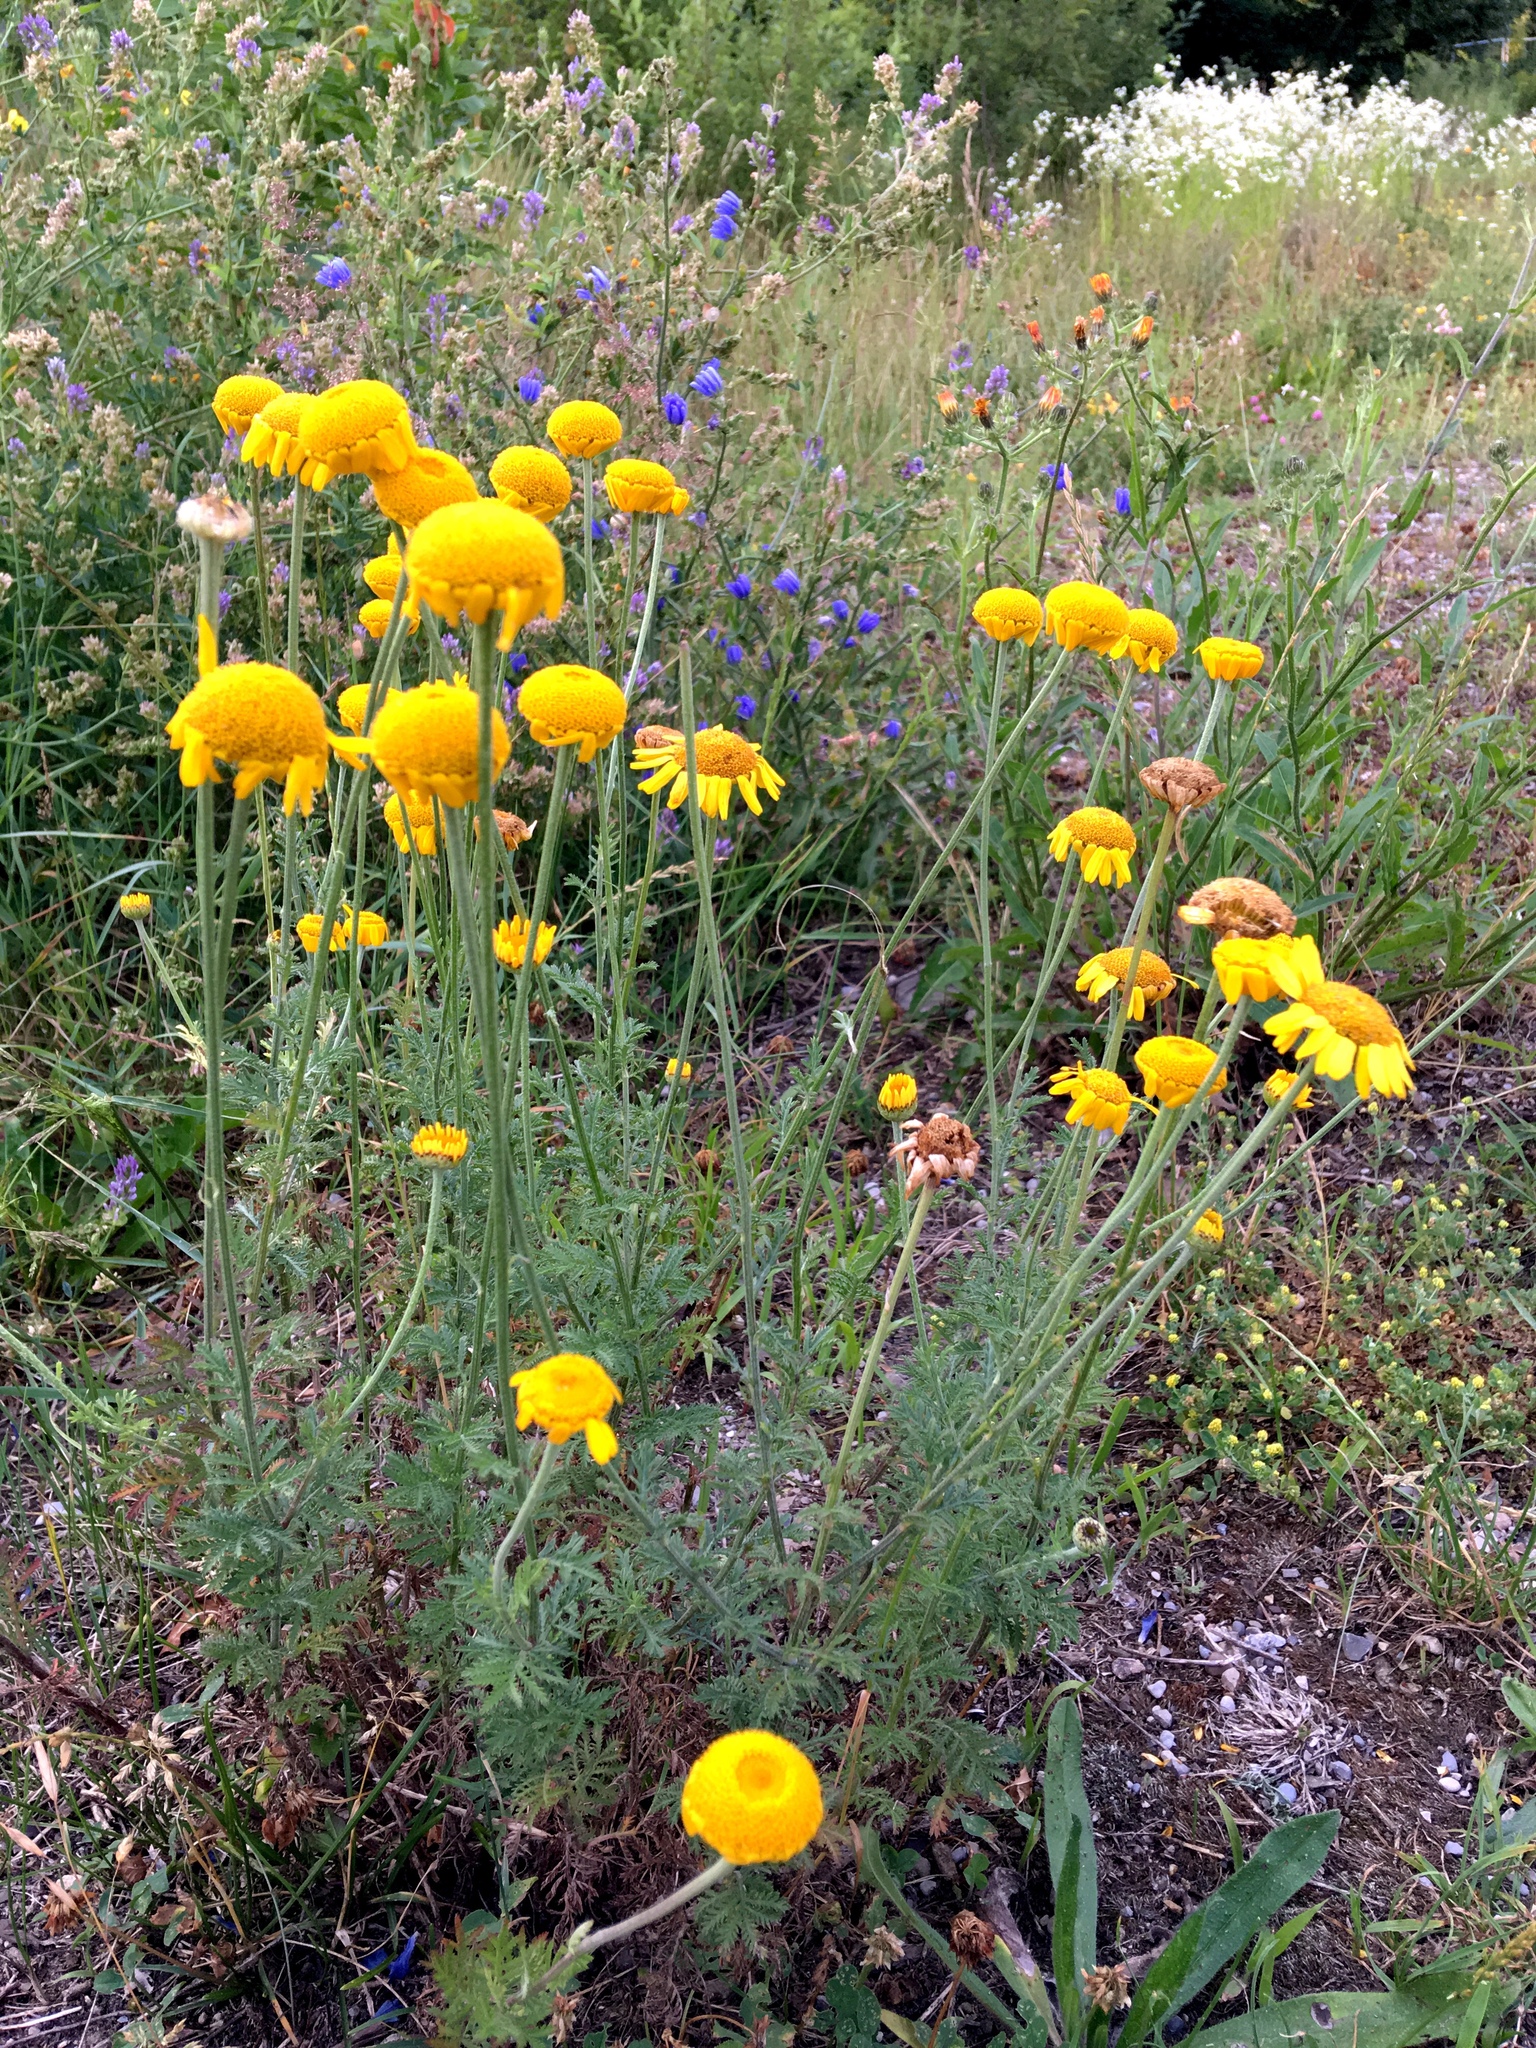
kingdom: Plantae
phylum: Tracheophyta
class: Magnoliopsida
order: Asterales
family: Asteraceae
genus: Cota
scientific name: Cota tinctoria
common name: Golden chamomile
